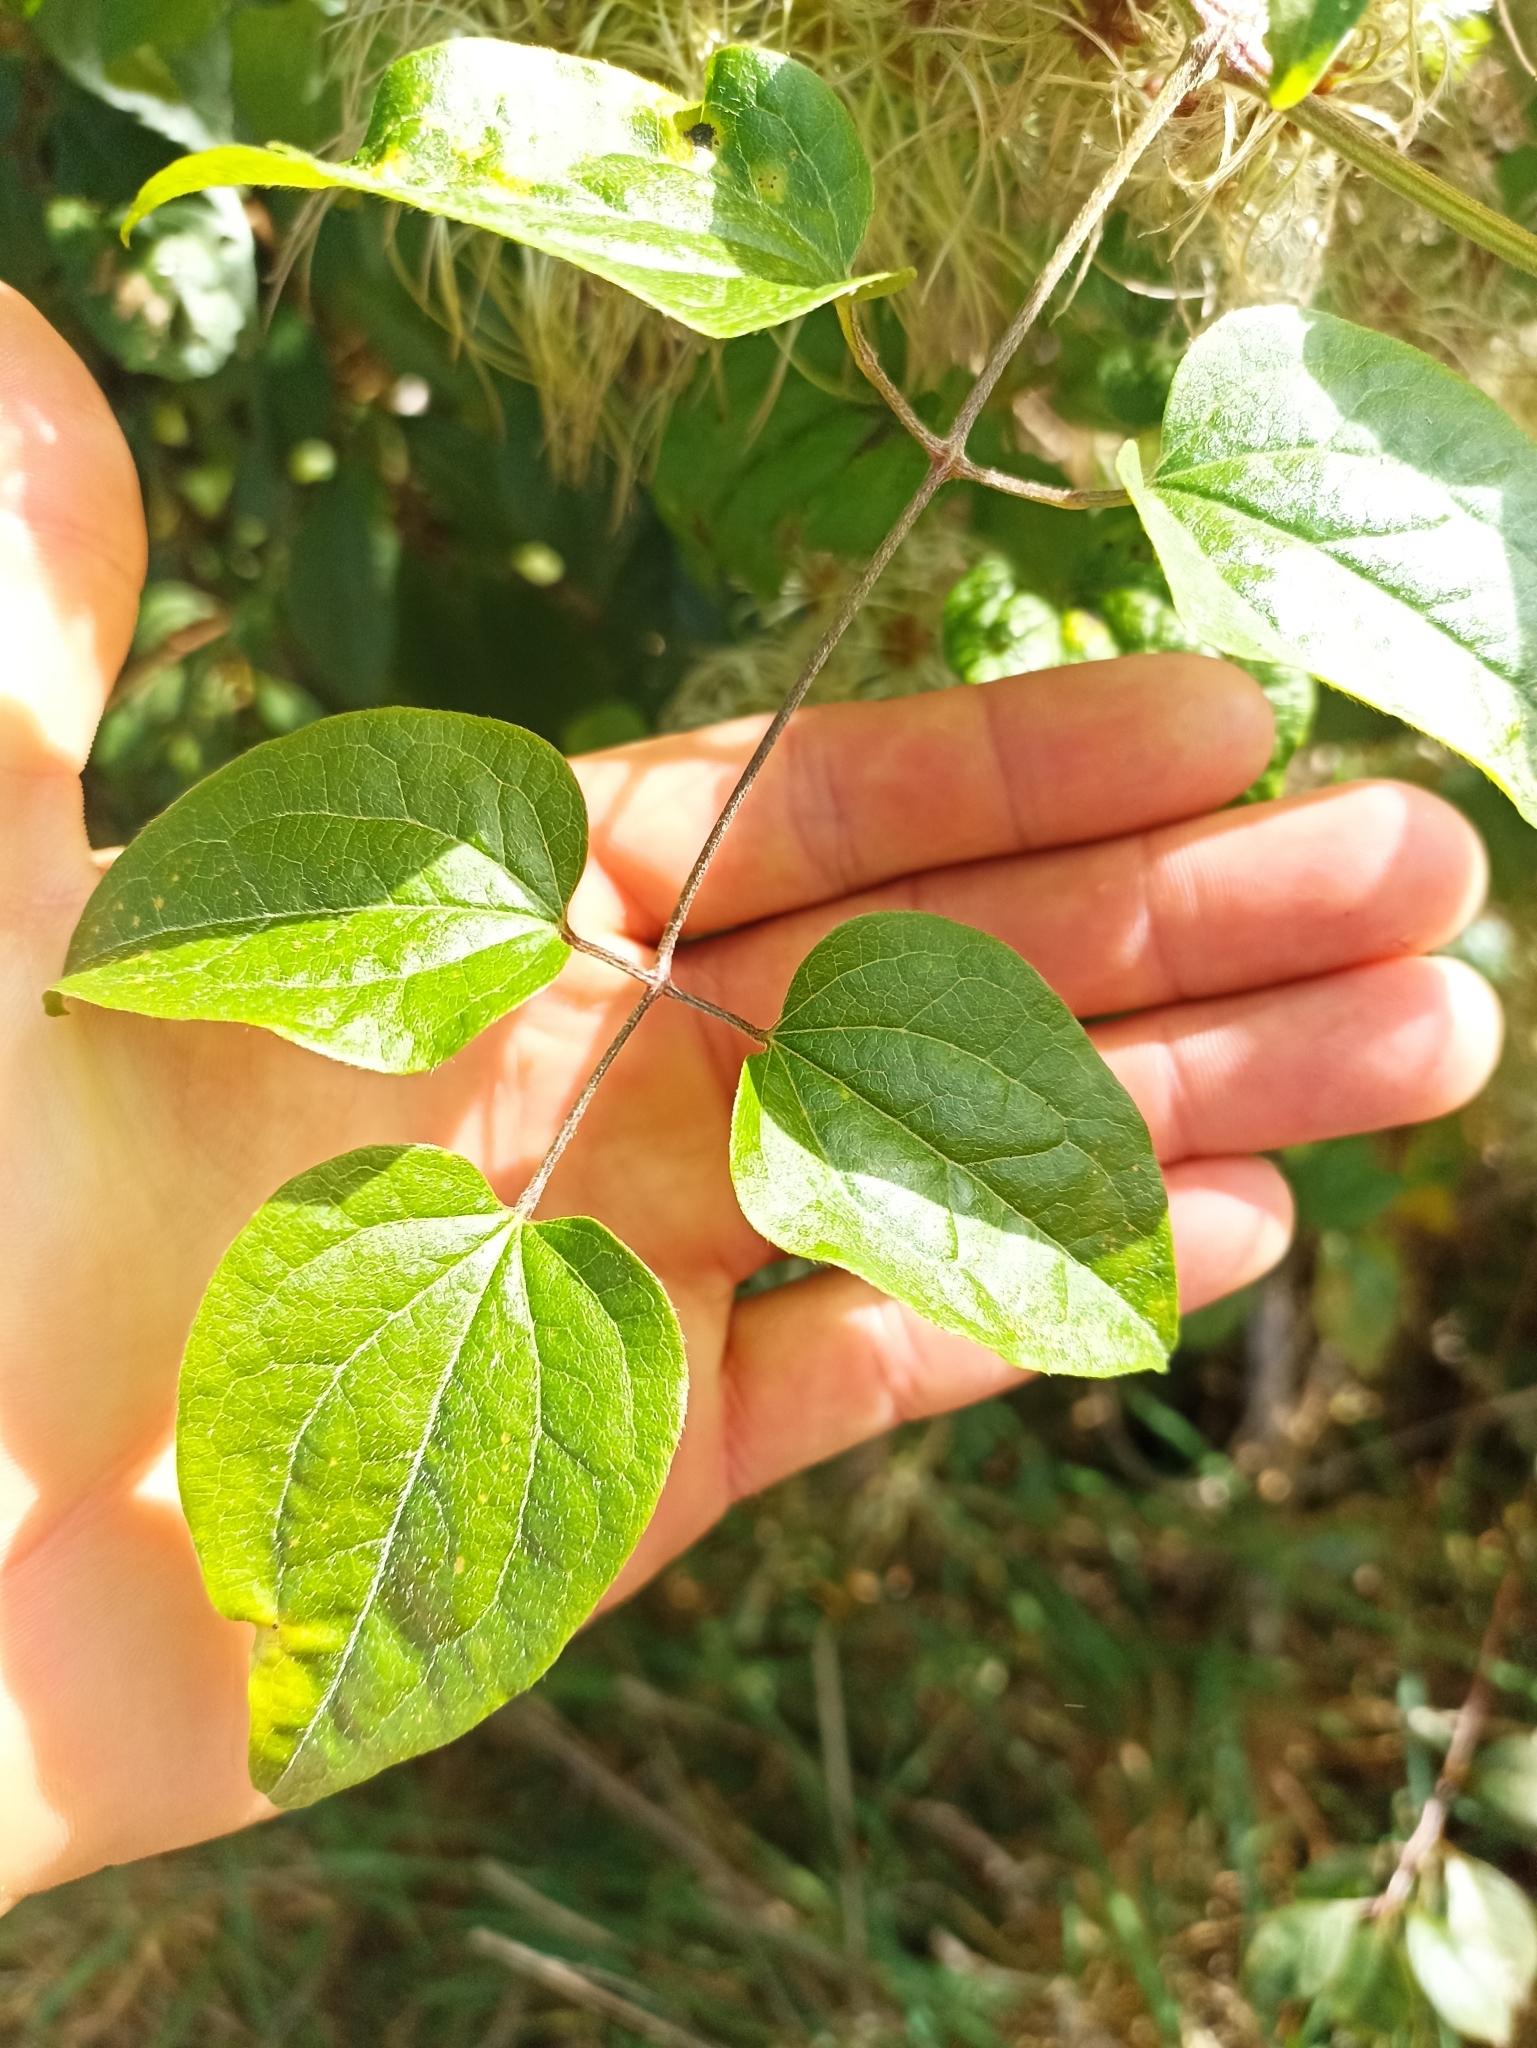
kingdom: Plantae
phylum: Tracheophyta
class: Magnoliopsida
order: Ranunculales
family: Ranunculaceae
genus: Clematis
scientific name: Clematis vitalba
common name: Evergreen clematis
